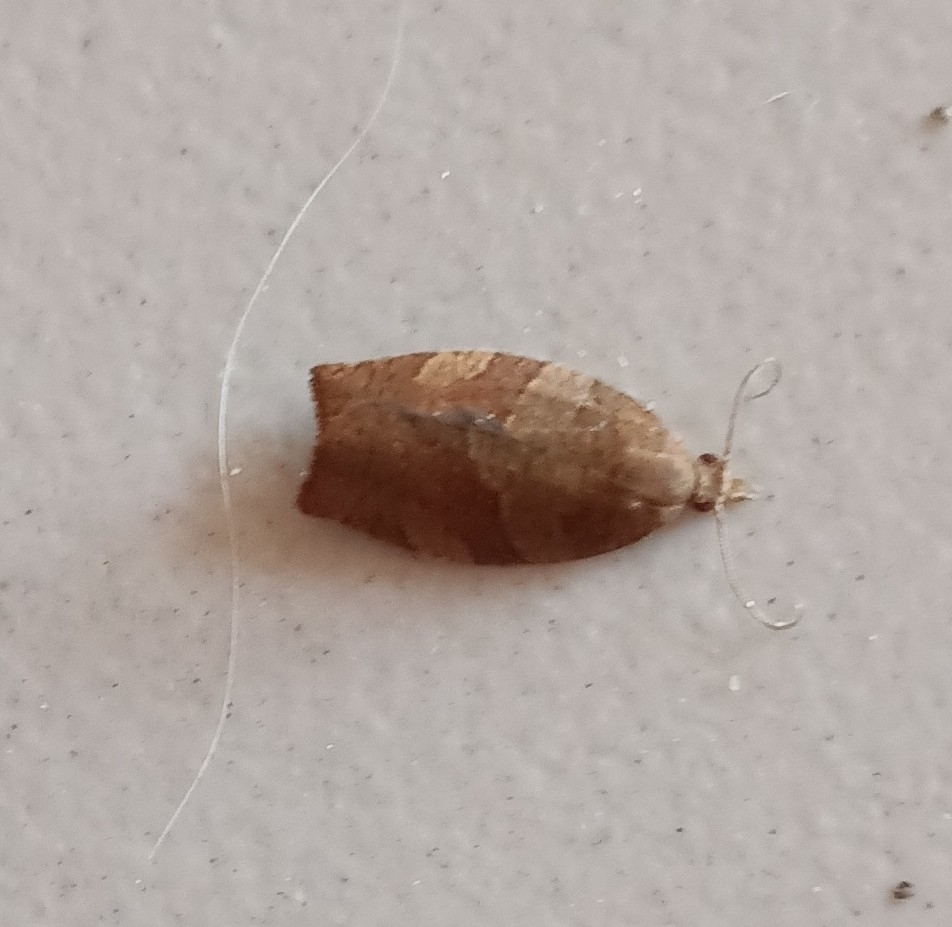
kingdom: Animalia
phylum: Arthropoda
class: Insecta
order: Lepidoptera
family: Tortricidae
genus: Pandemis
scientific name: Pandemis heparana
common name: Dark fruit-tree tortrix
